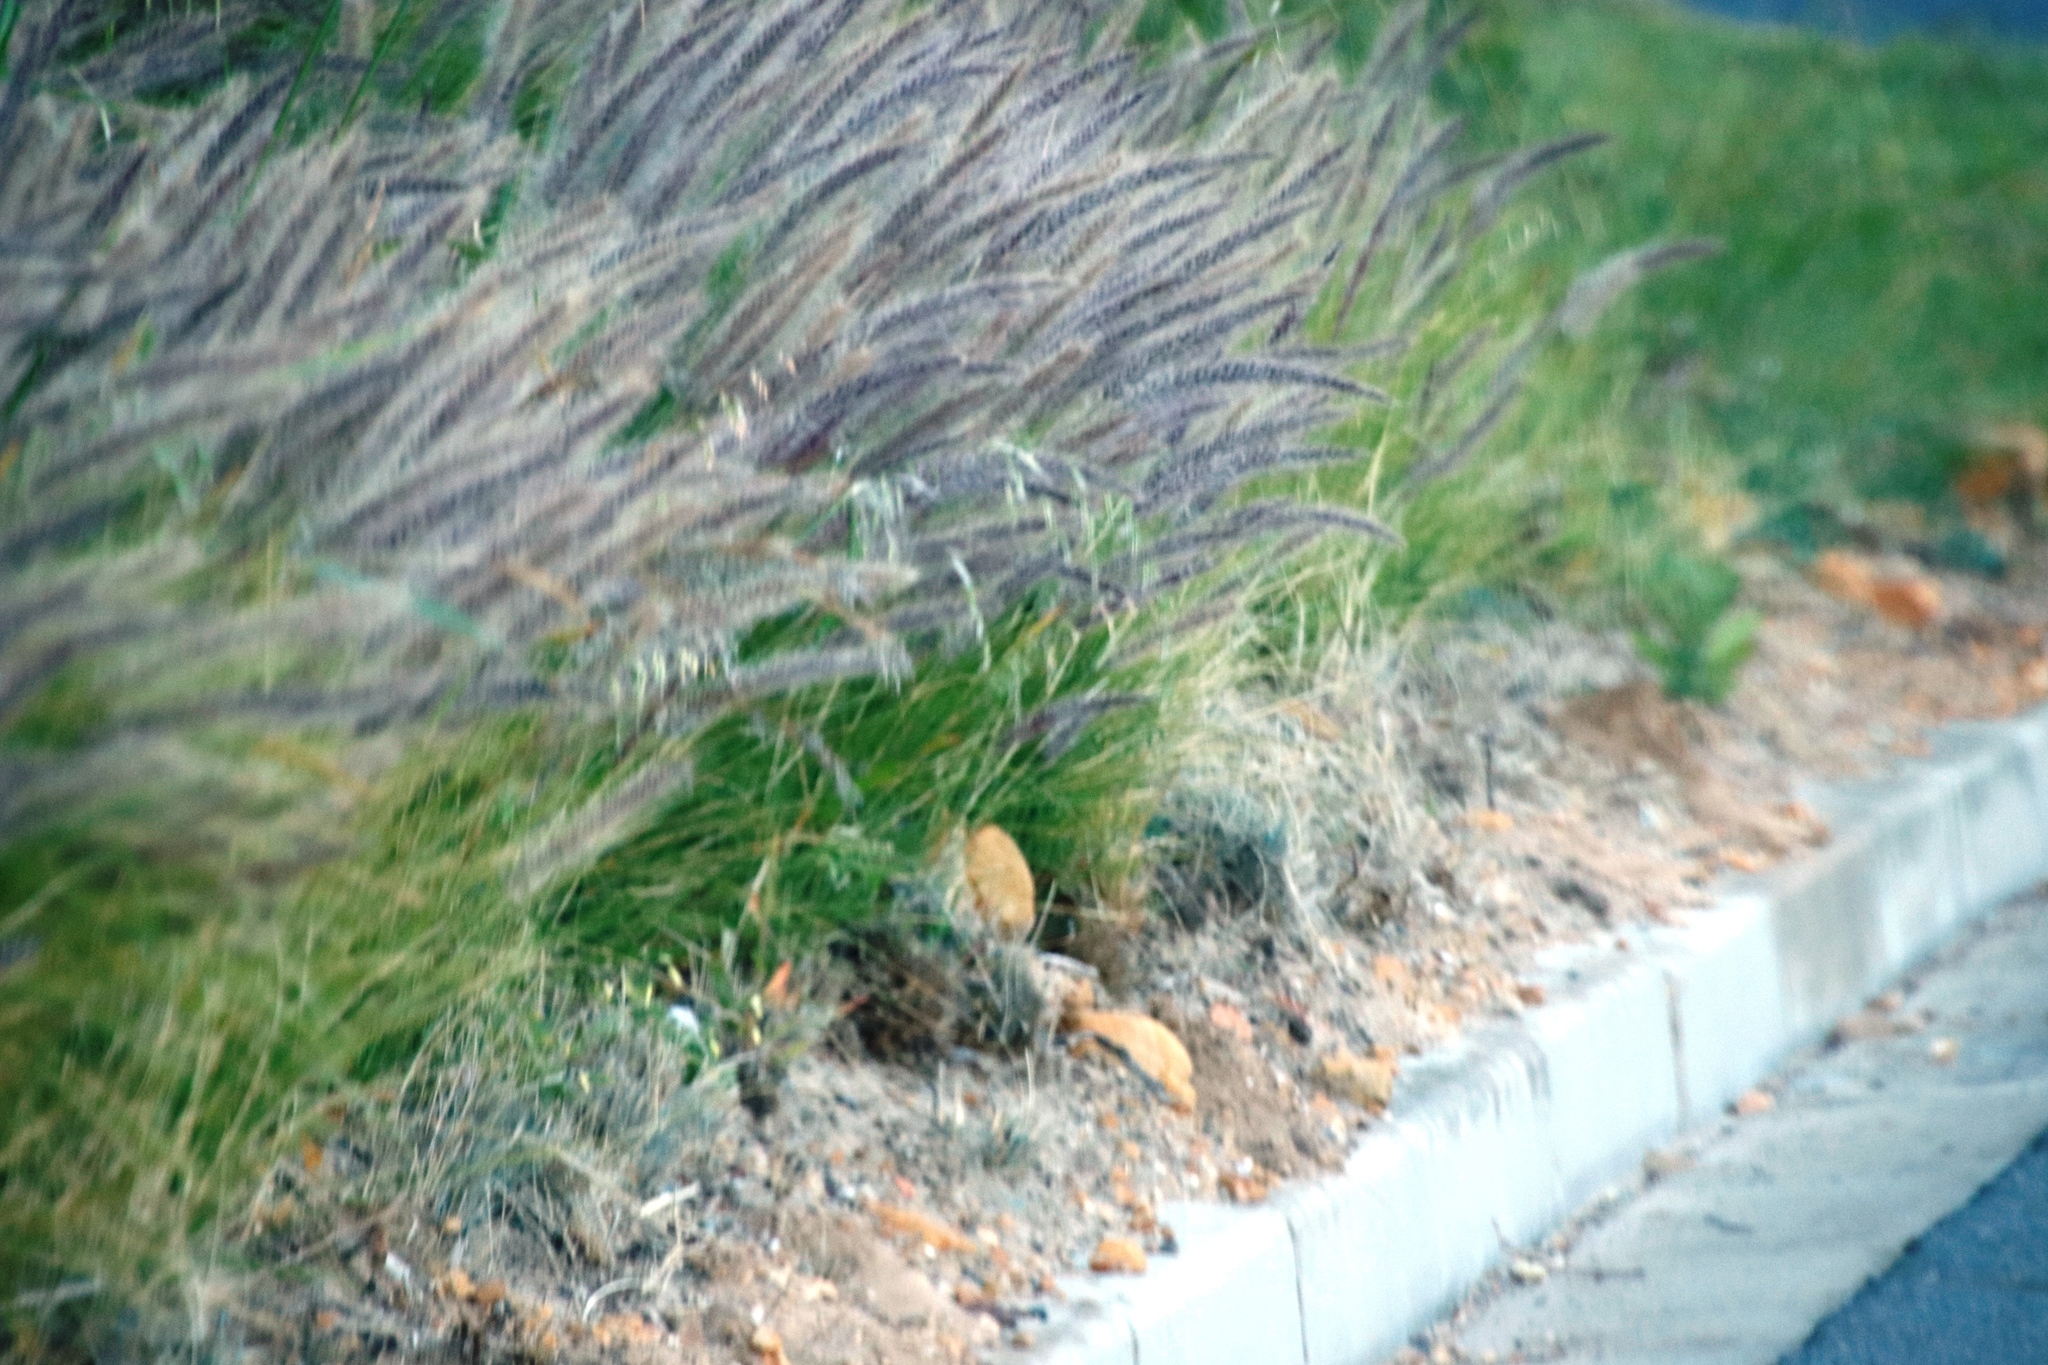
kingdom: Plantae
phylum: Tracheophyta
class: Liliopsida
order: Poales
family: Poaceae
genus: Cenchrus
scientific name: Cenchrus setaceus
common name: Crimson fountaingrass
